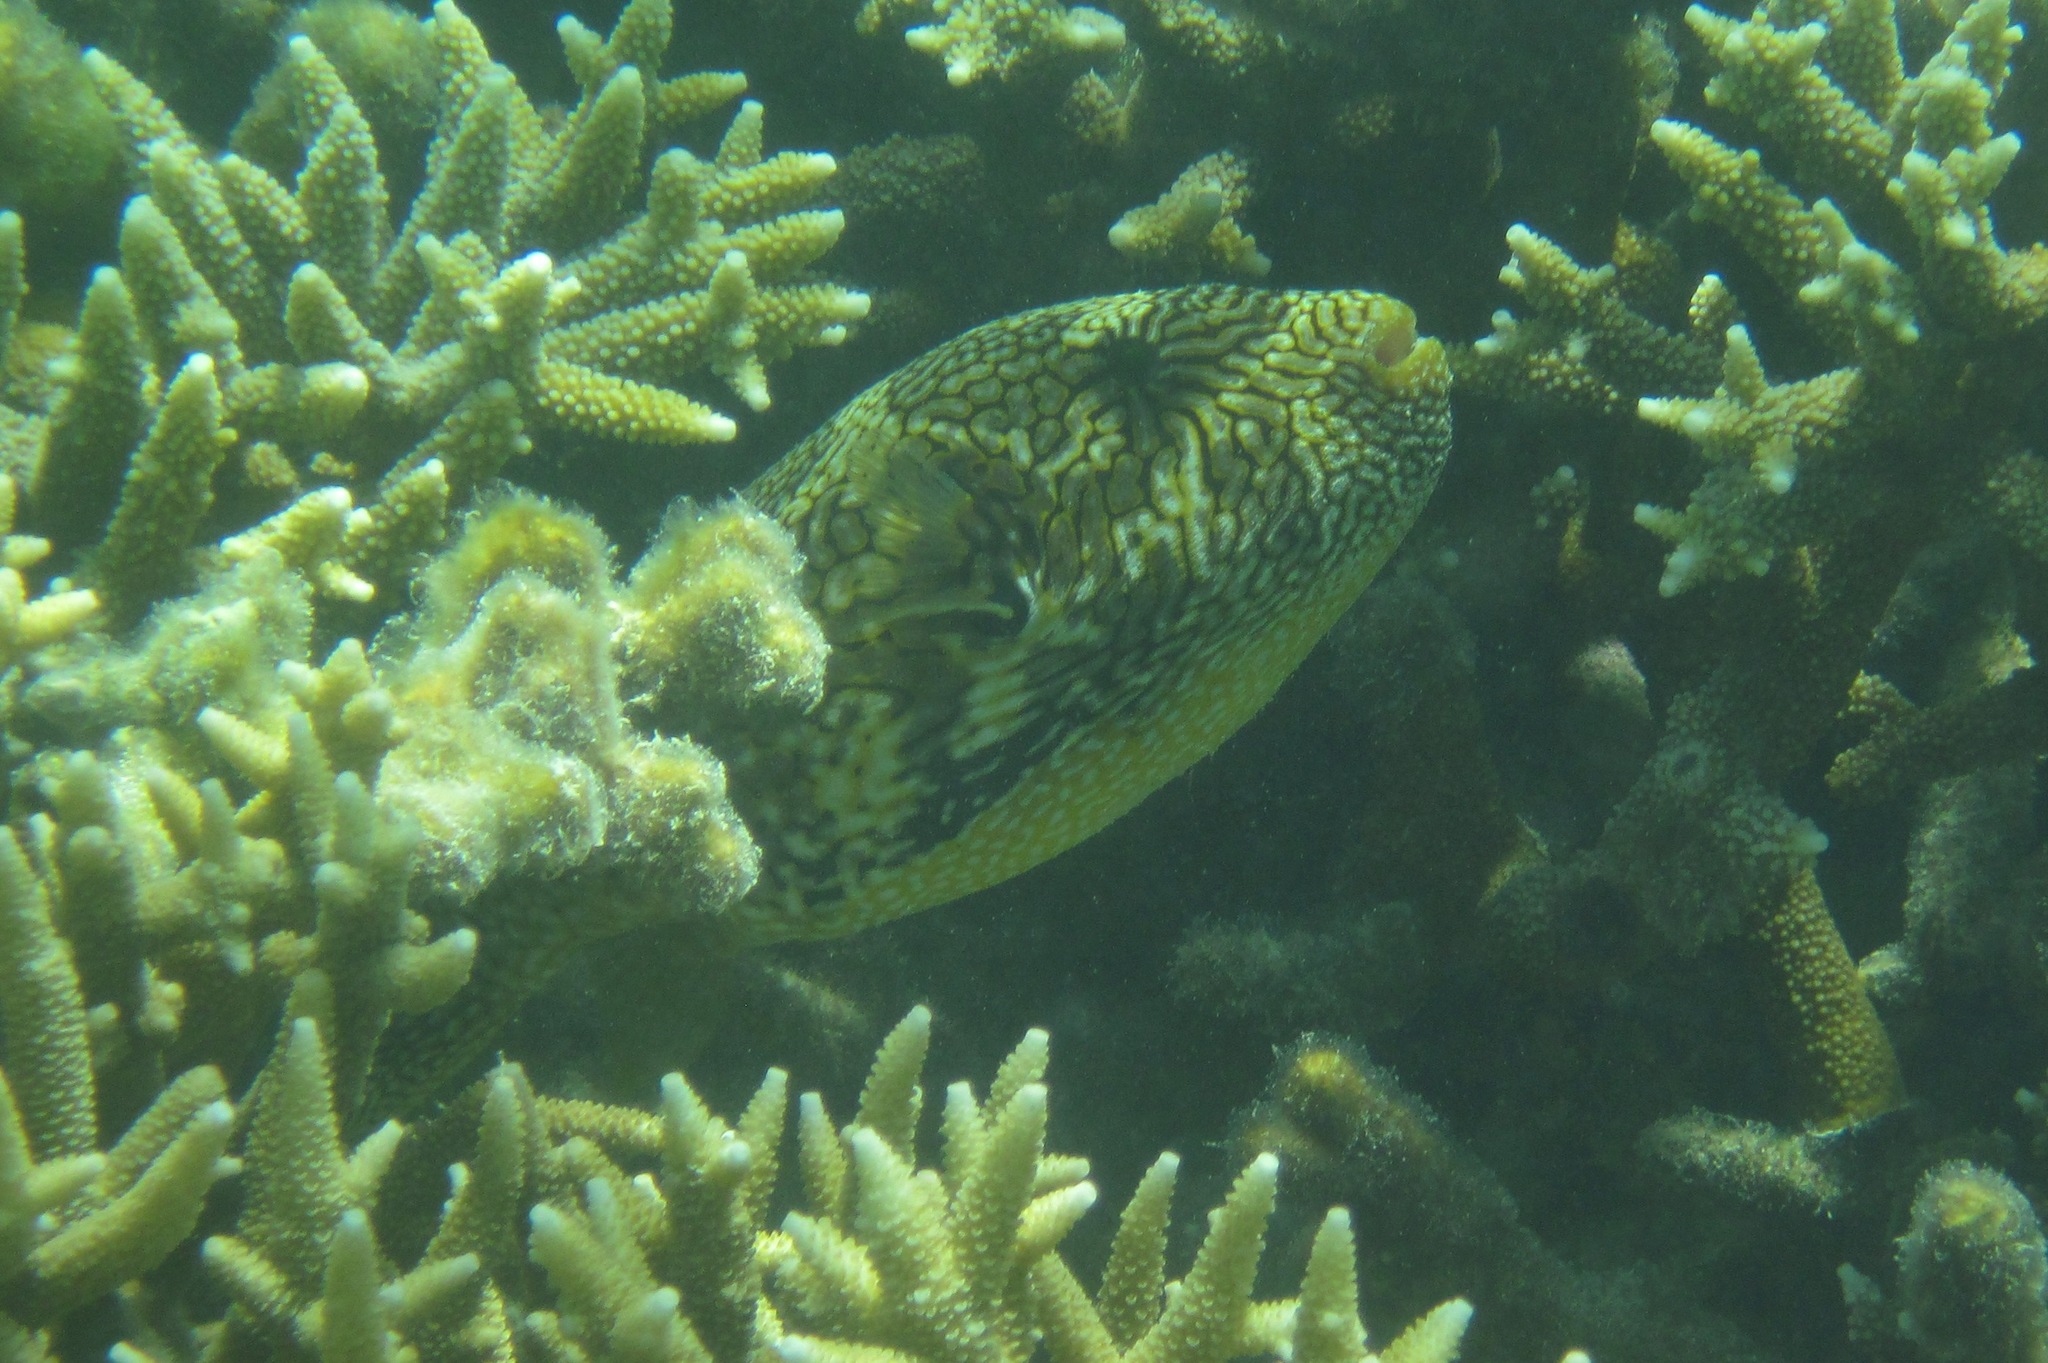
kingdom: Animalia
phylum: Chordata
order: Tetraodontiformes
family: Tetraodontidae
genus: Arothron
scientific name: Arothron mappa
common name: Map blaasop
